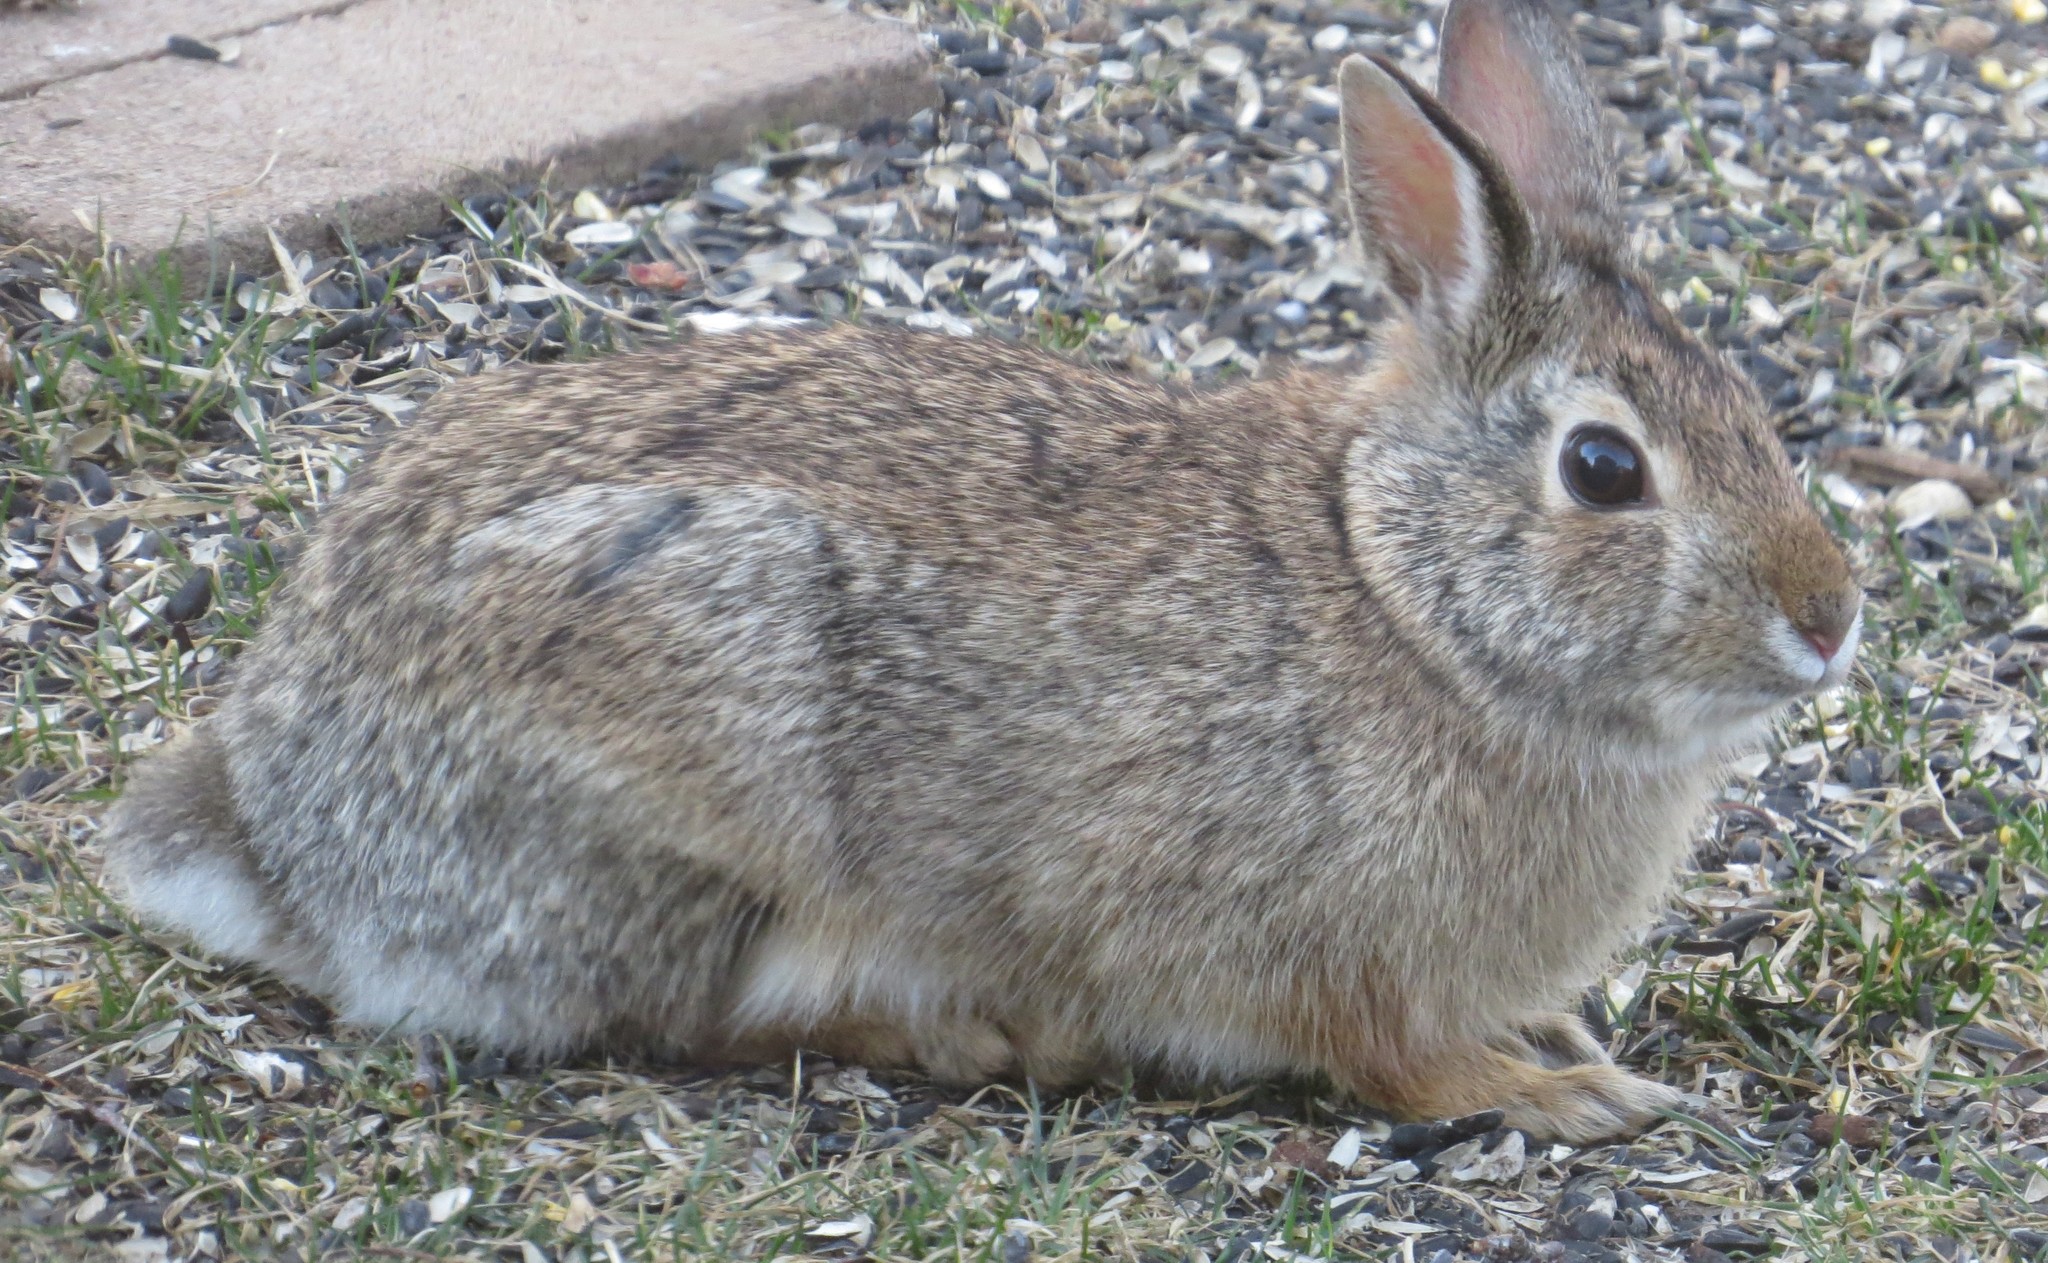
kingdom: Animalia
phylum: Chordata
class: Mammalia
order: Lagomorpha
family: Leporidae
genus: Sylvilagus
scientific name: Sylvilagus floridanus
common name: Eastern cottontail
